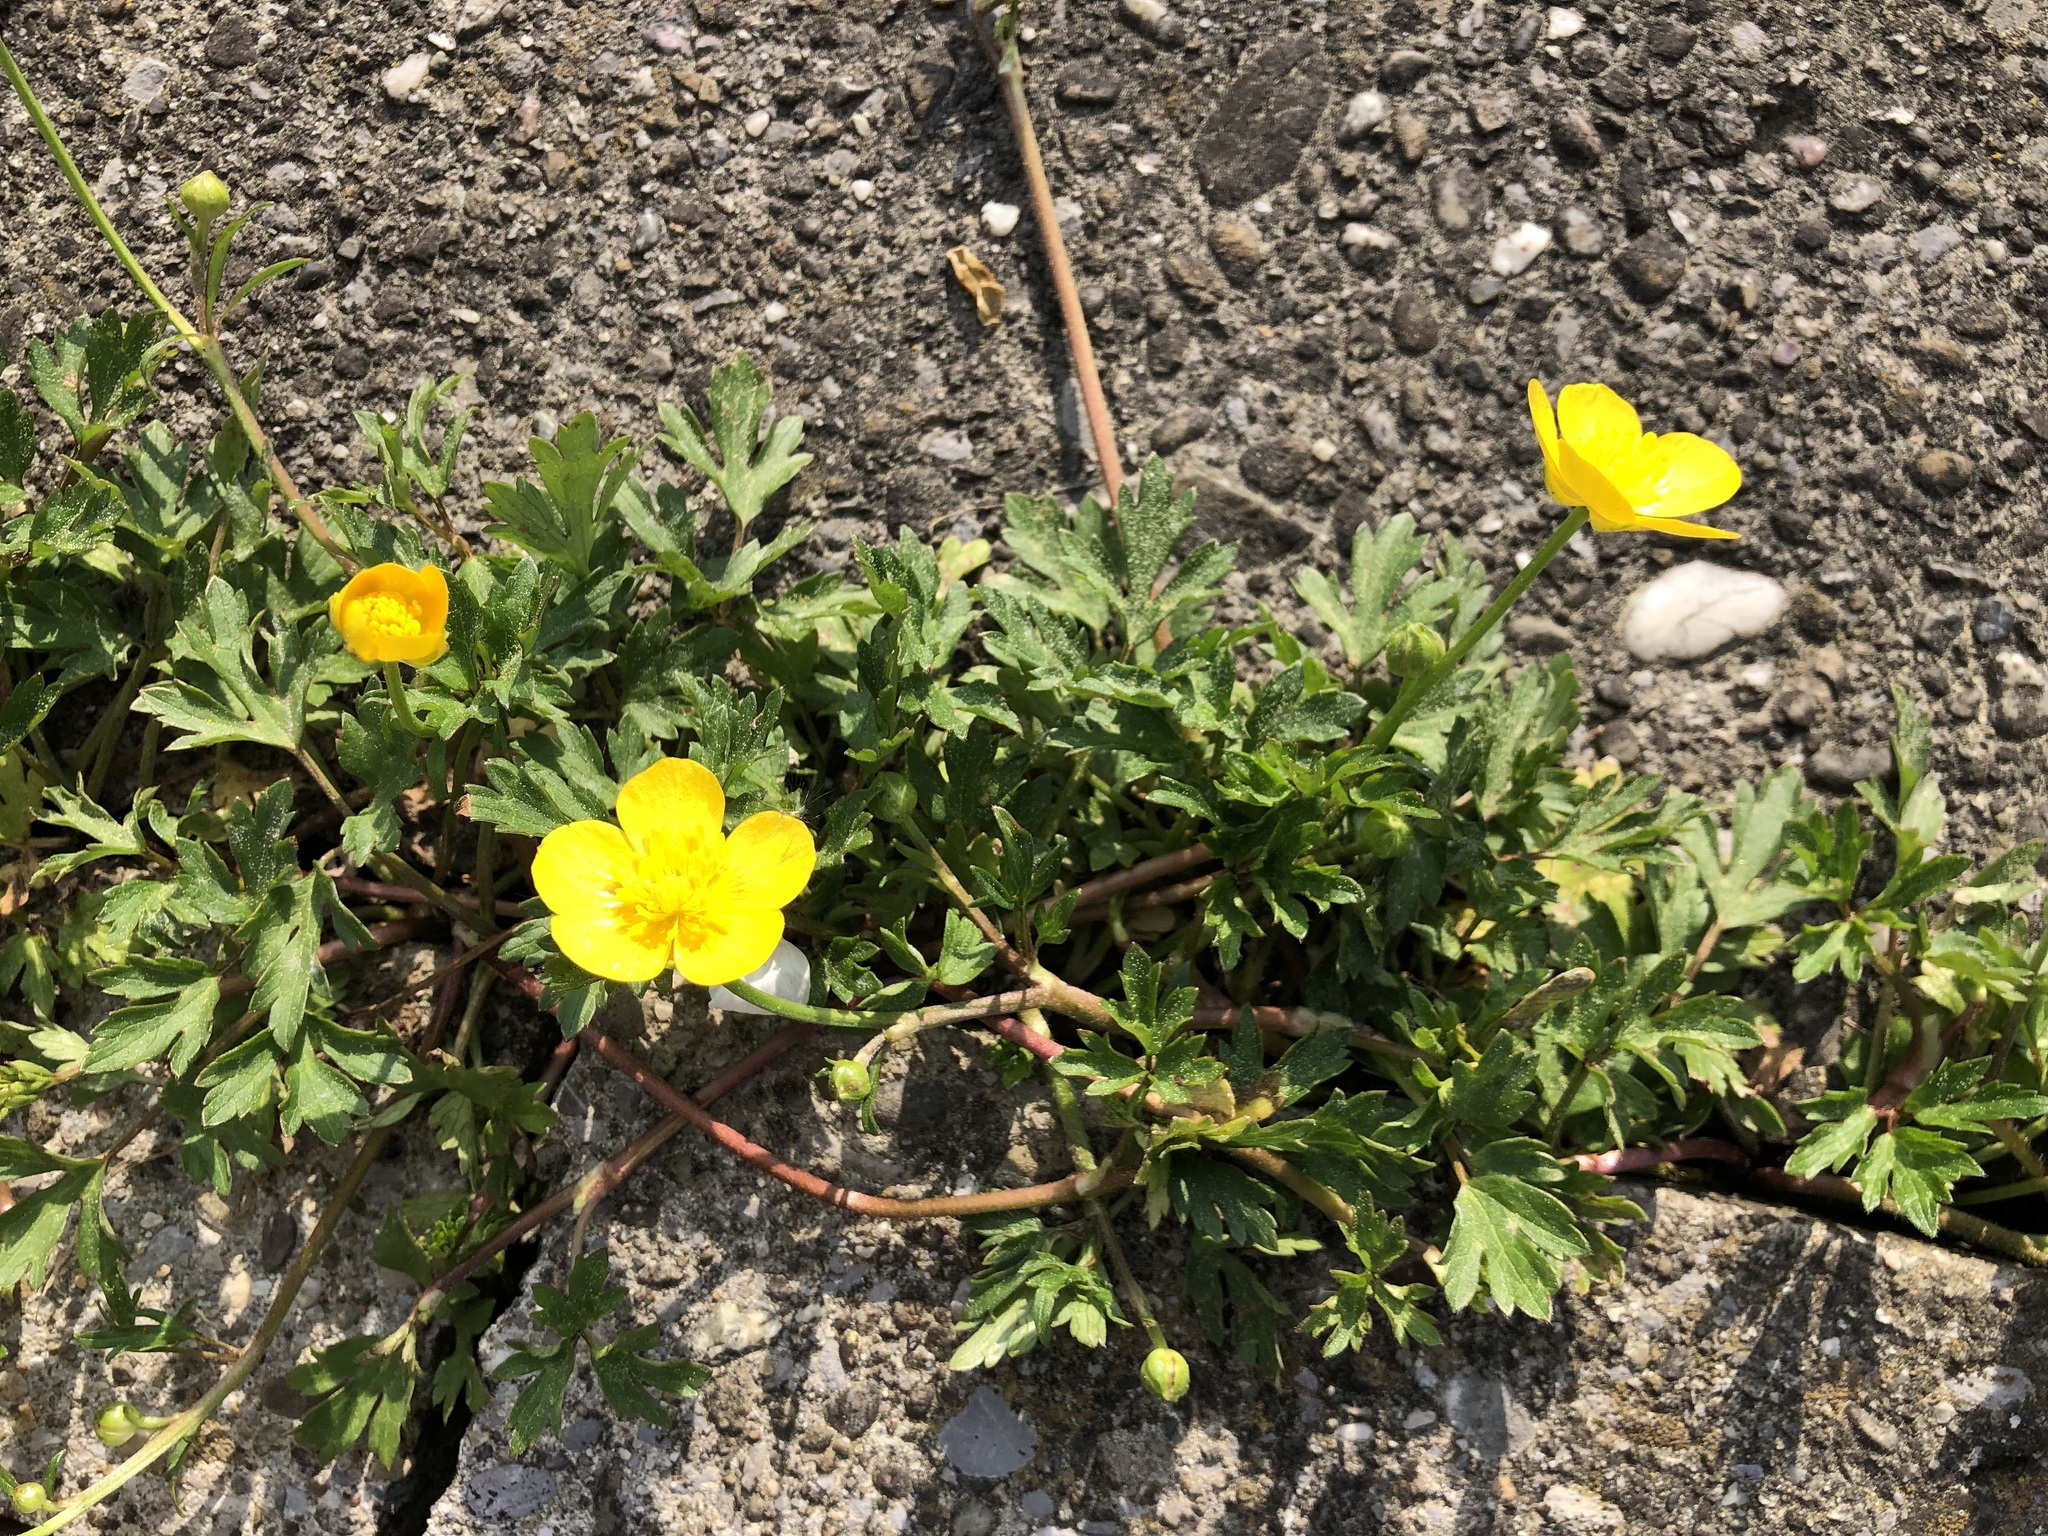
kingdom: Plantae
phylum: Tracheophyta
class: Magnoliopsida
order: Ranunculales
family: Ranunculaceae
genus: Ranunculus
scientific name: Ranunculus repens
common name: Creeping buttercup
